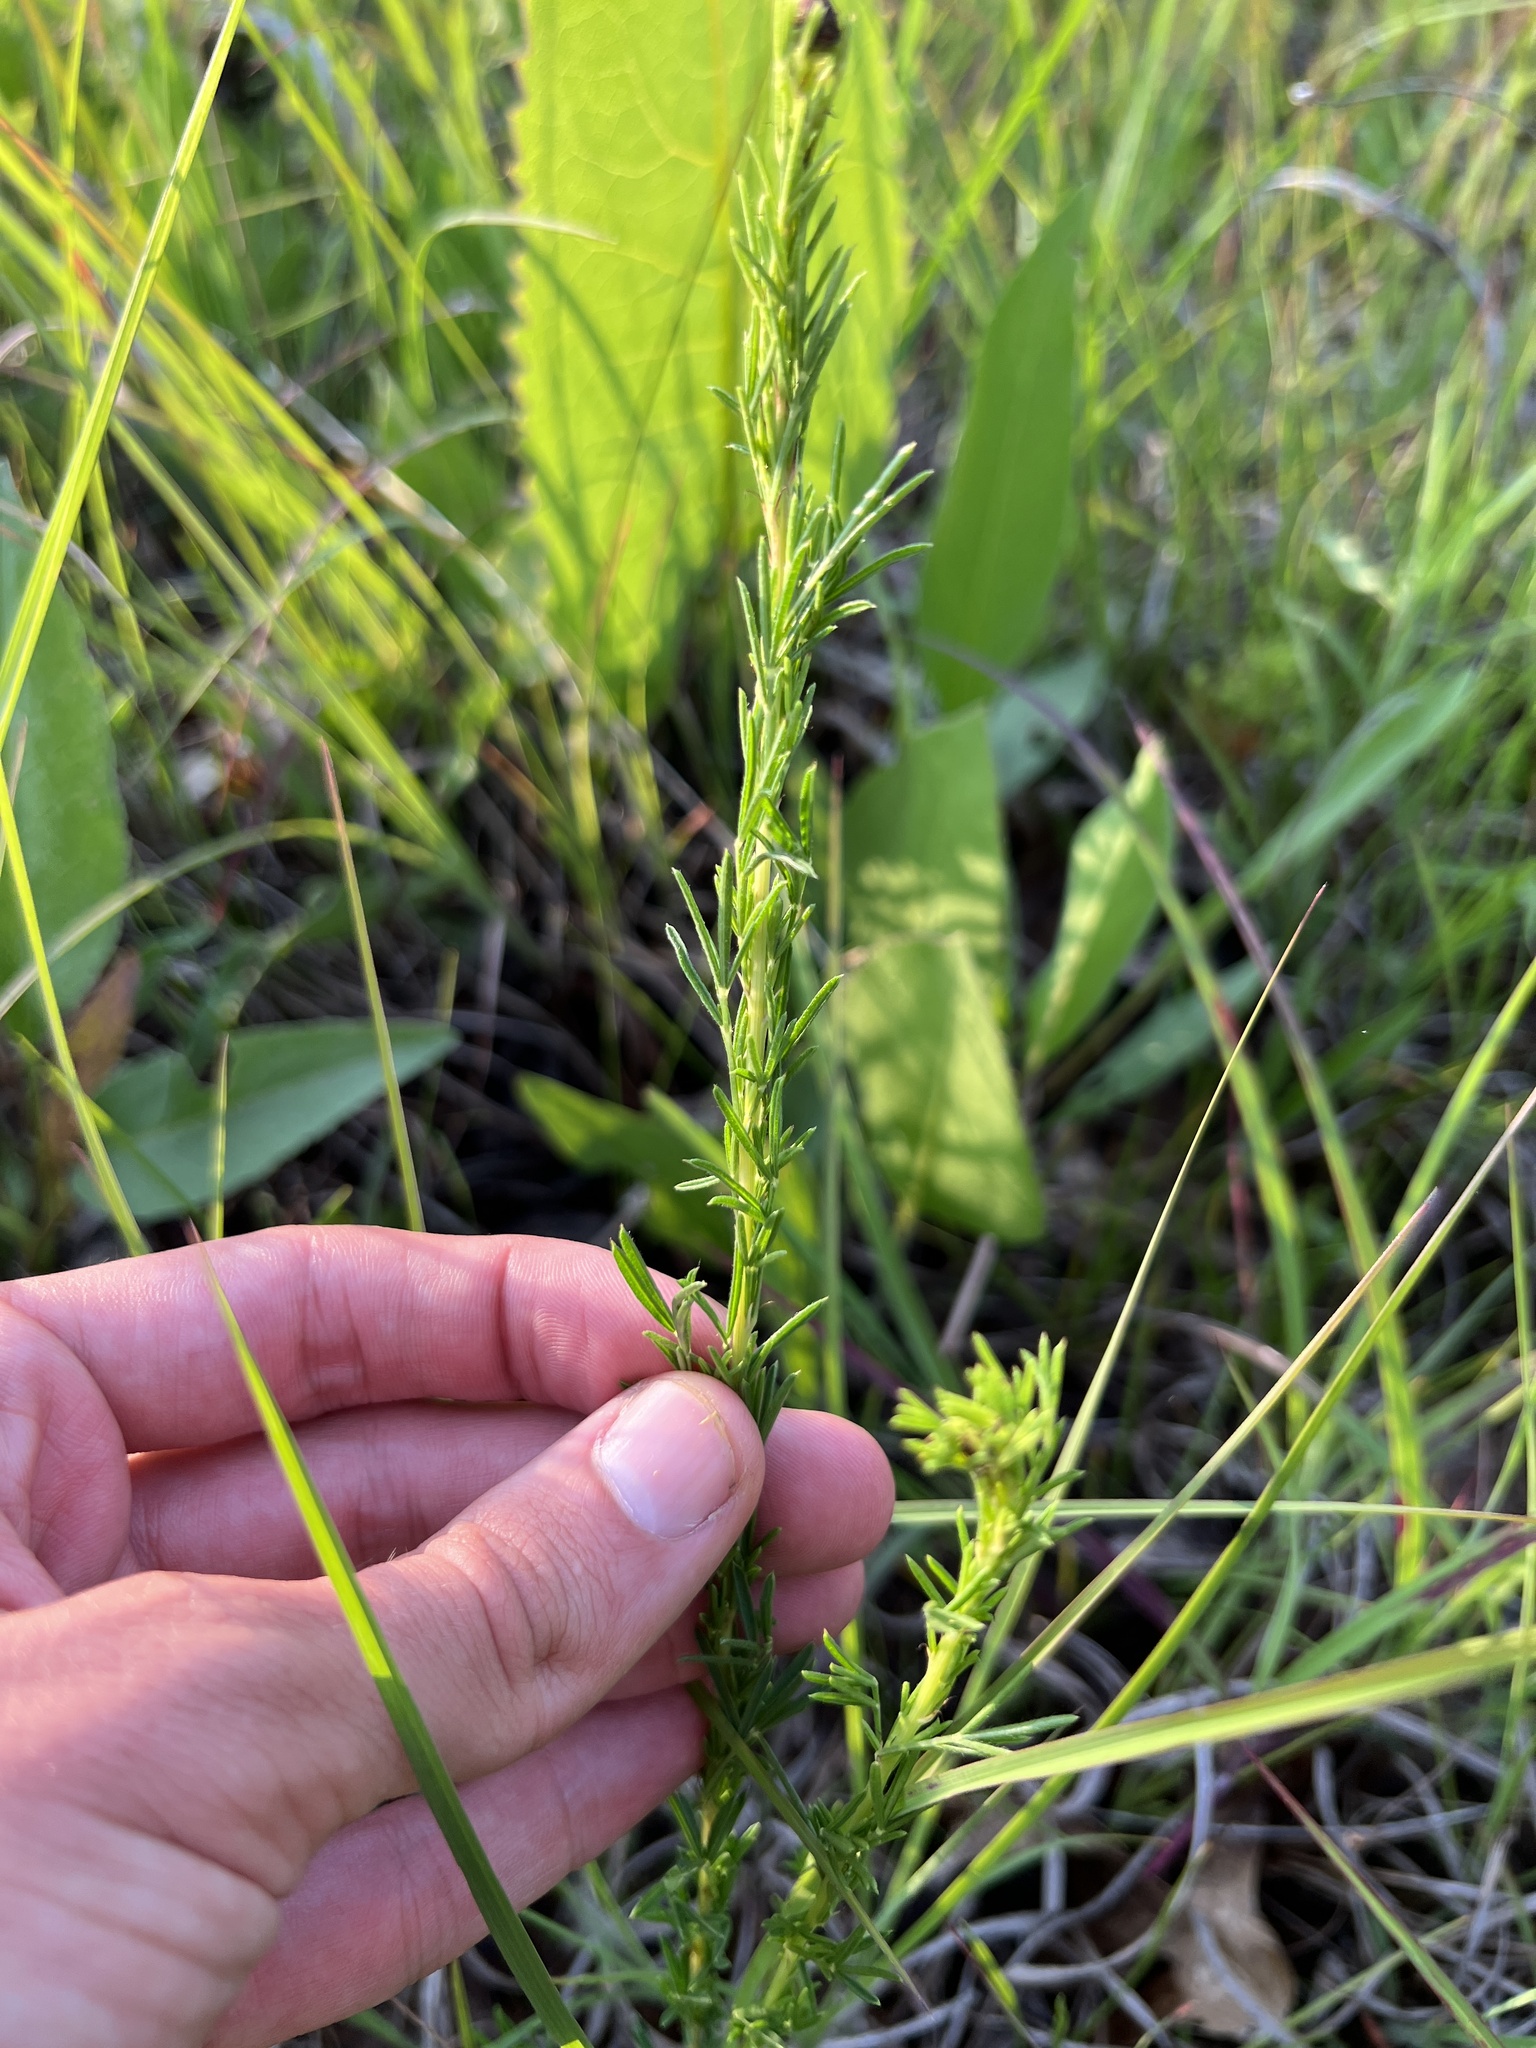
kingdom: Plantae
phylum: Tracheophyta
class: Magnoliopsida
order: Fabales
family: Fabaceae
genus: Dalea
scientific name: Dalea purpurea
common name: Purple prairie-clover
